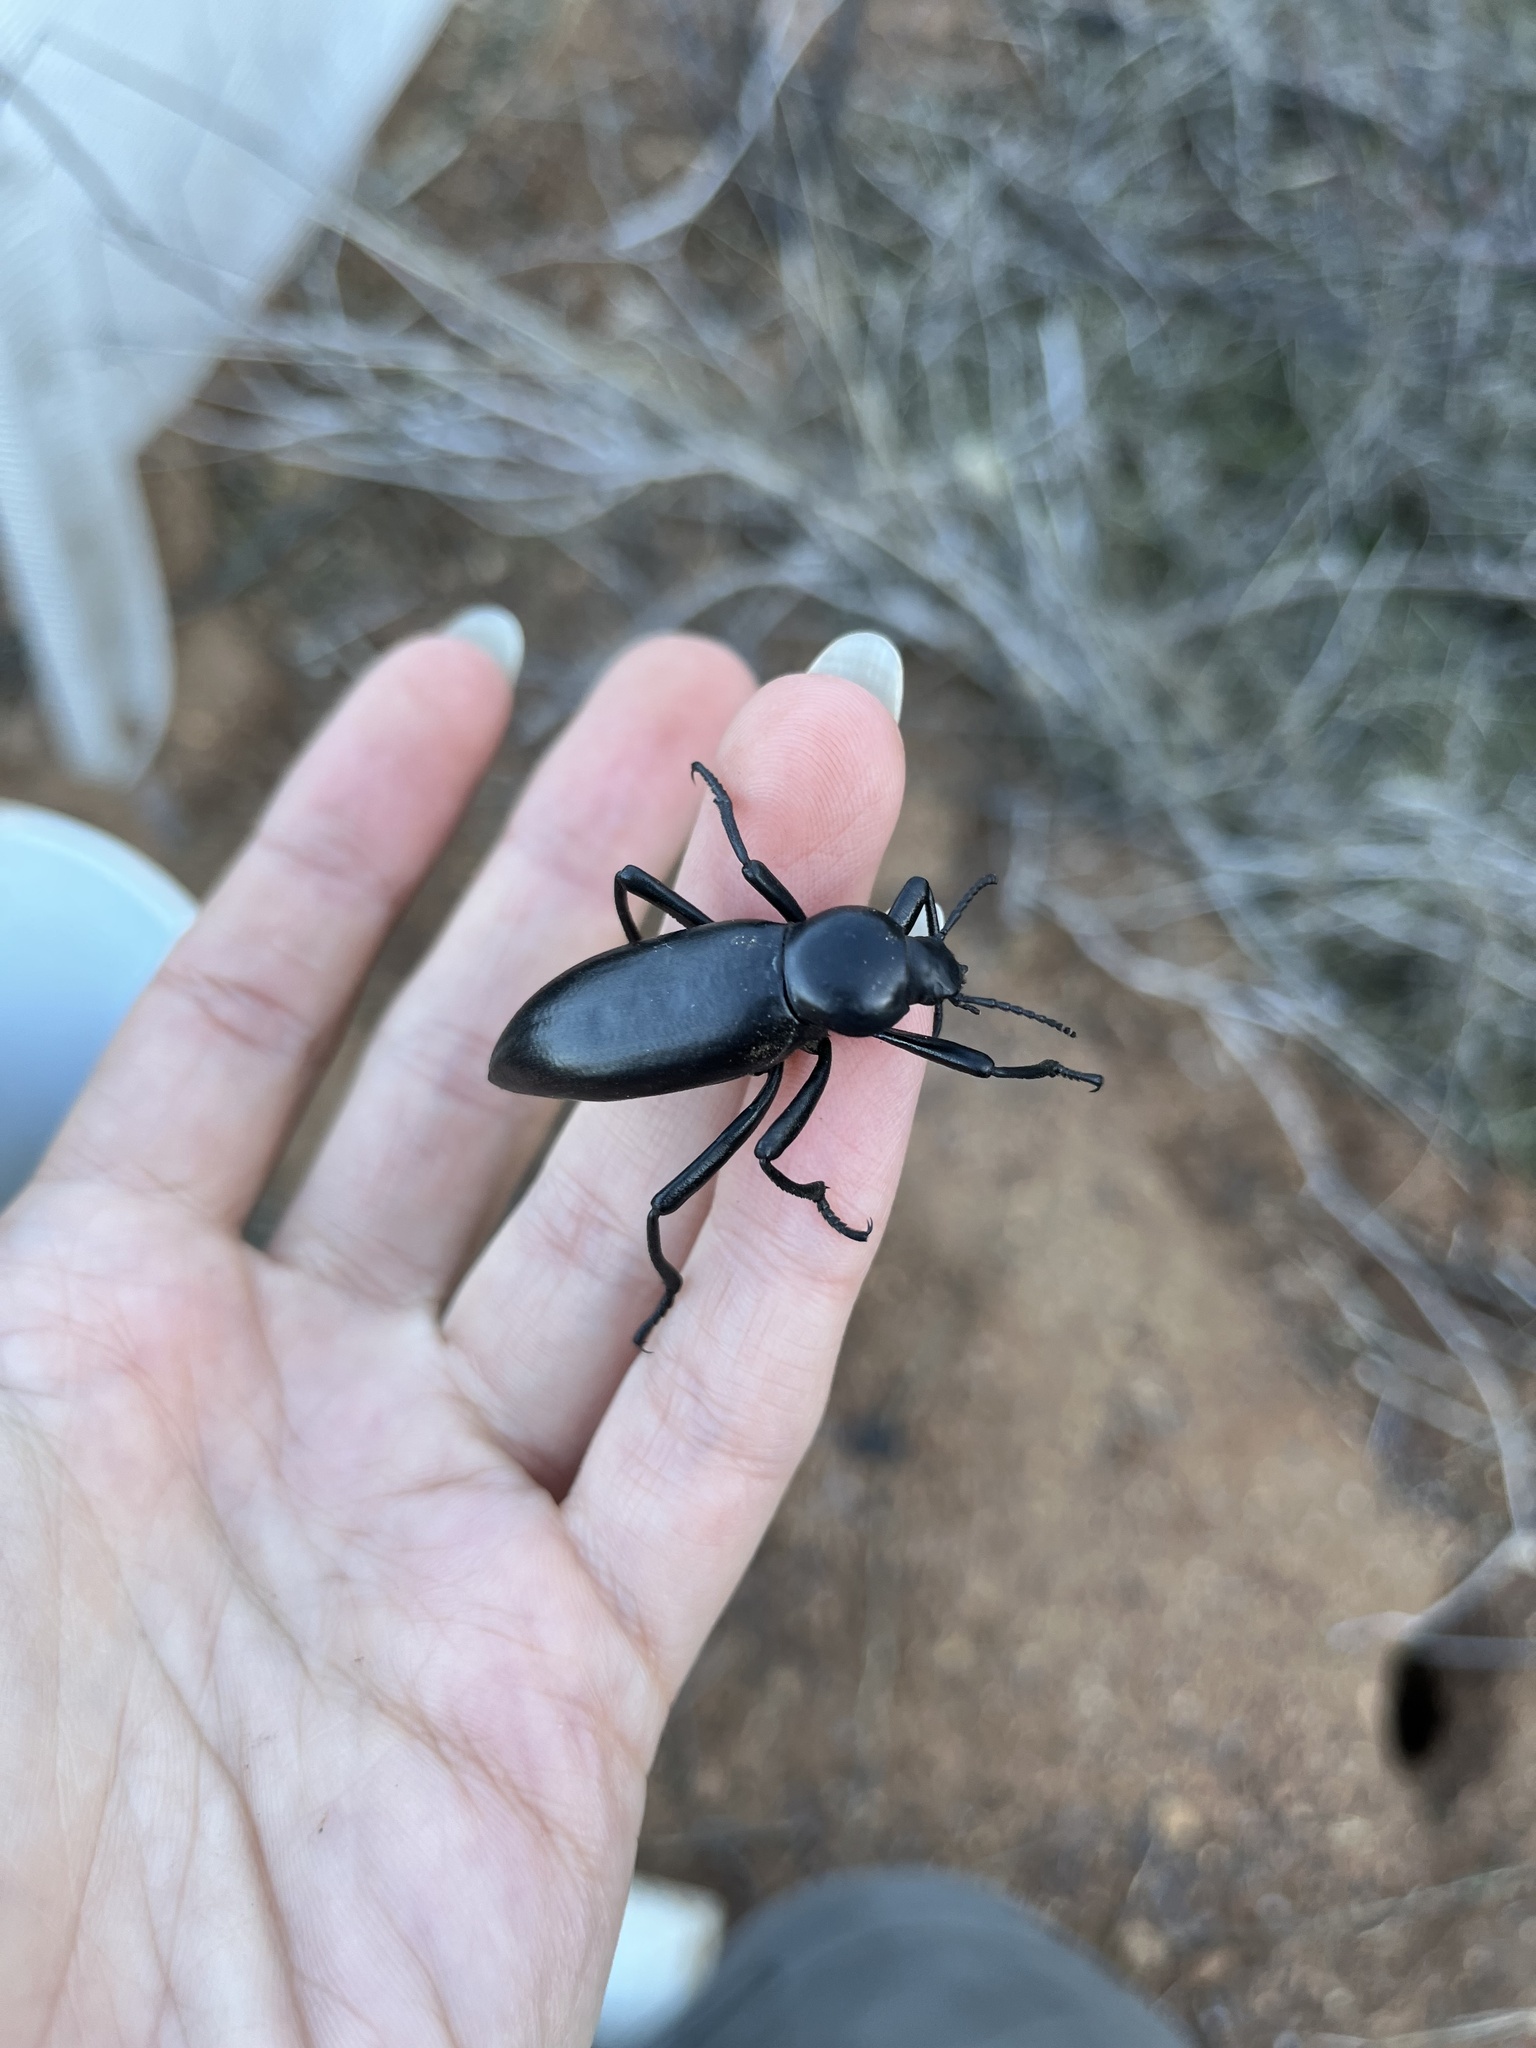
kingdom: Animalia
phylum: Arthropoda
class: Insecta
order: Coleoptera
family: Tenebrionidae
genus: Eleodes
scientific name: Eleodes gigantea
